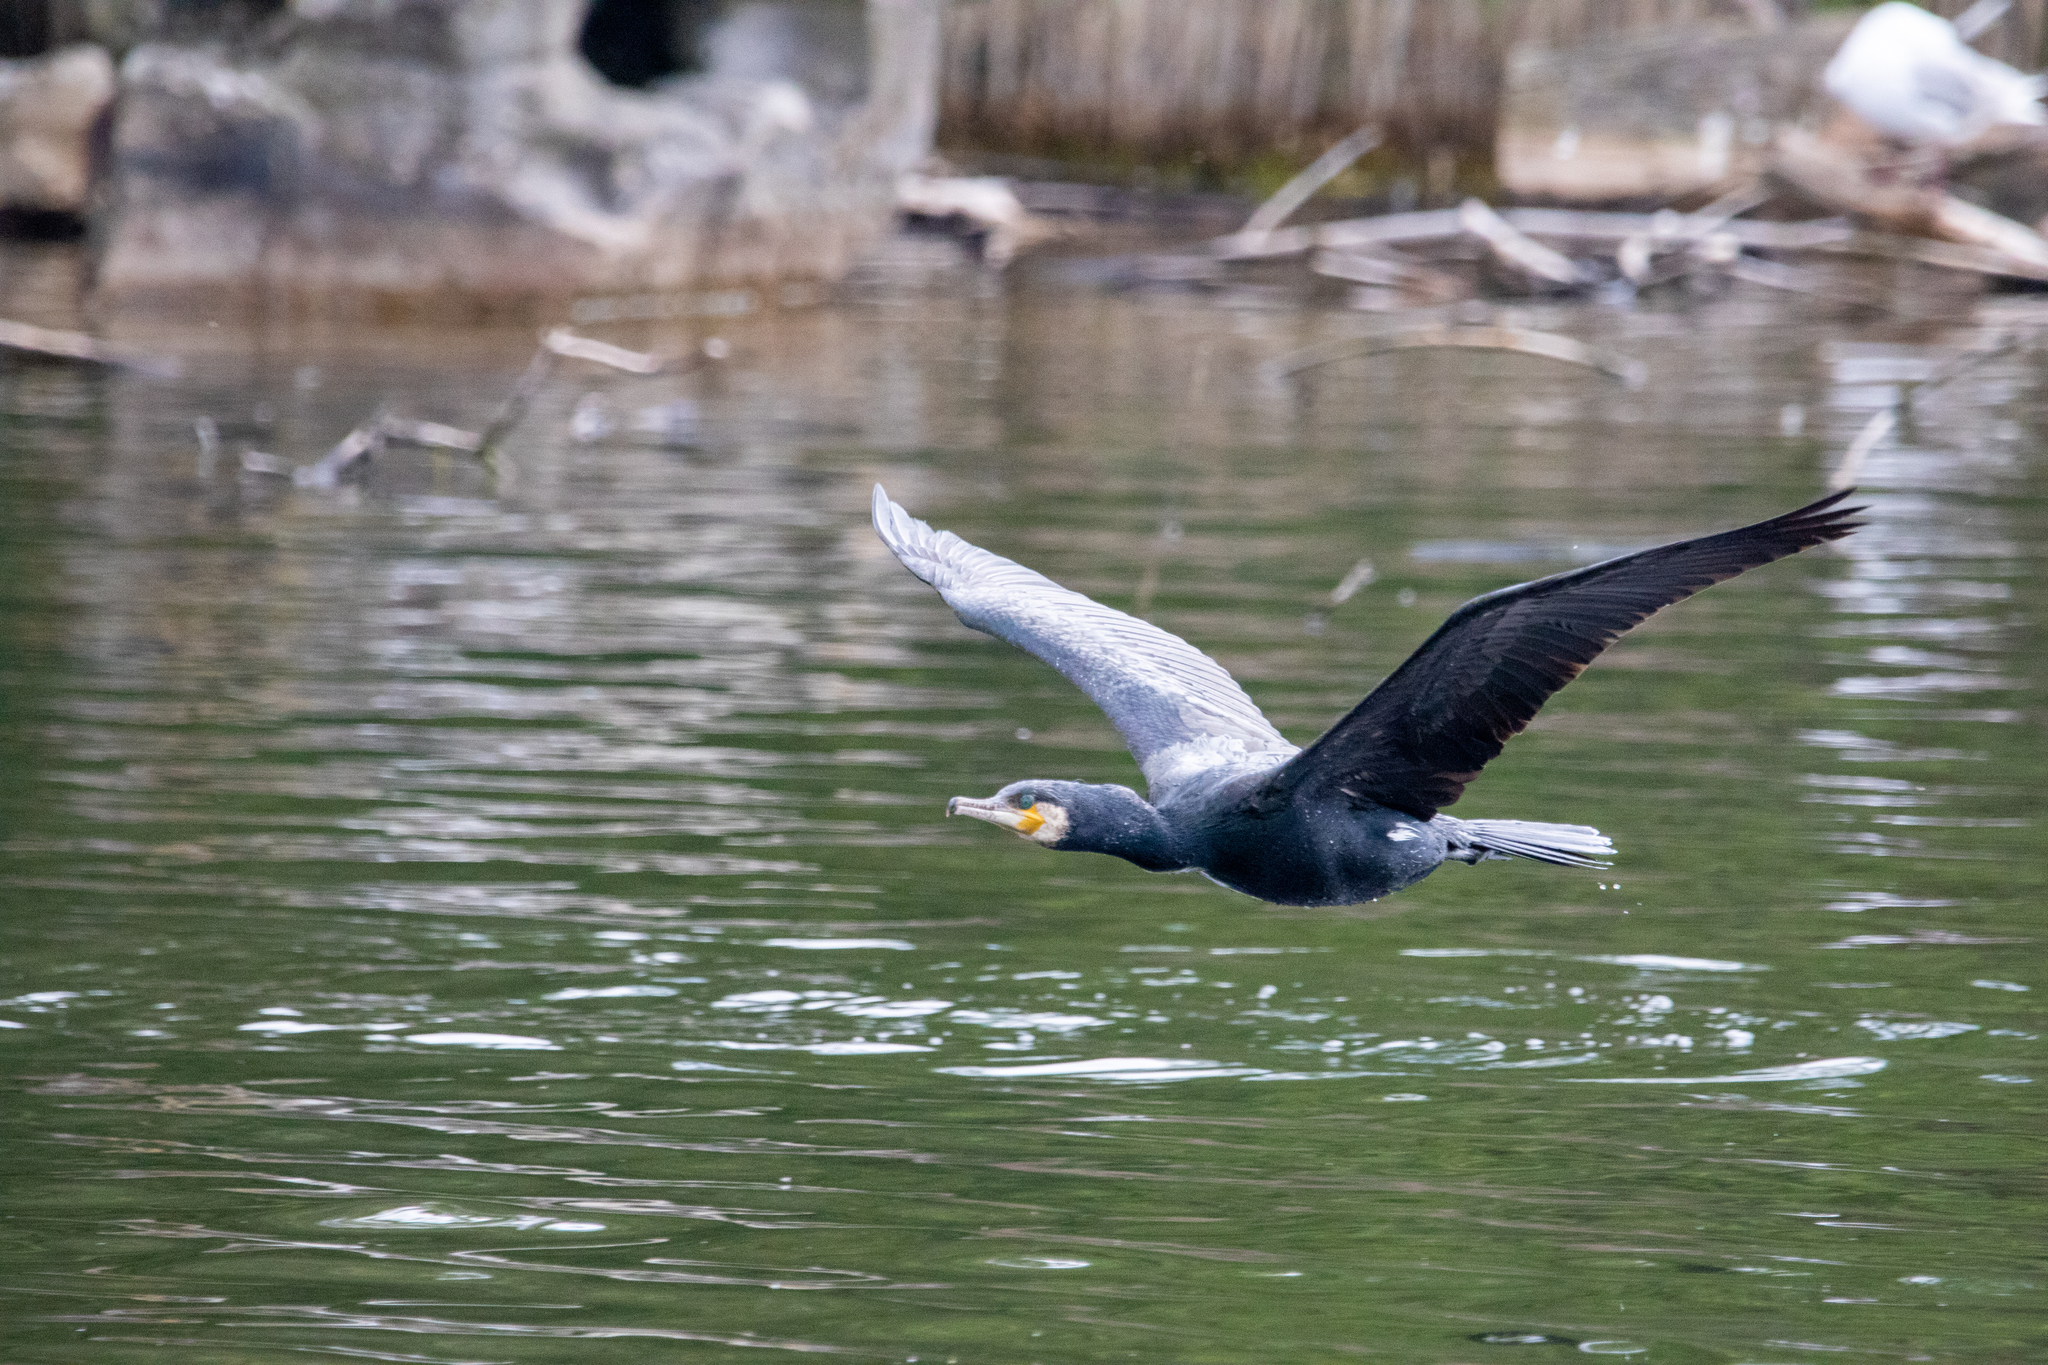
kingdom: Animalia
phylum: Chordata
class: Aves
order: Suliformes
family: Phalacrocoracidae
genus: Phalacrocorax
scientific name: Phalacrocorax carbo
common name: Great cormorant
